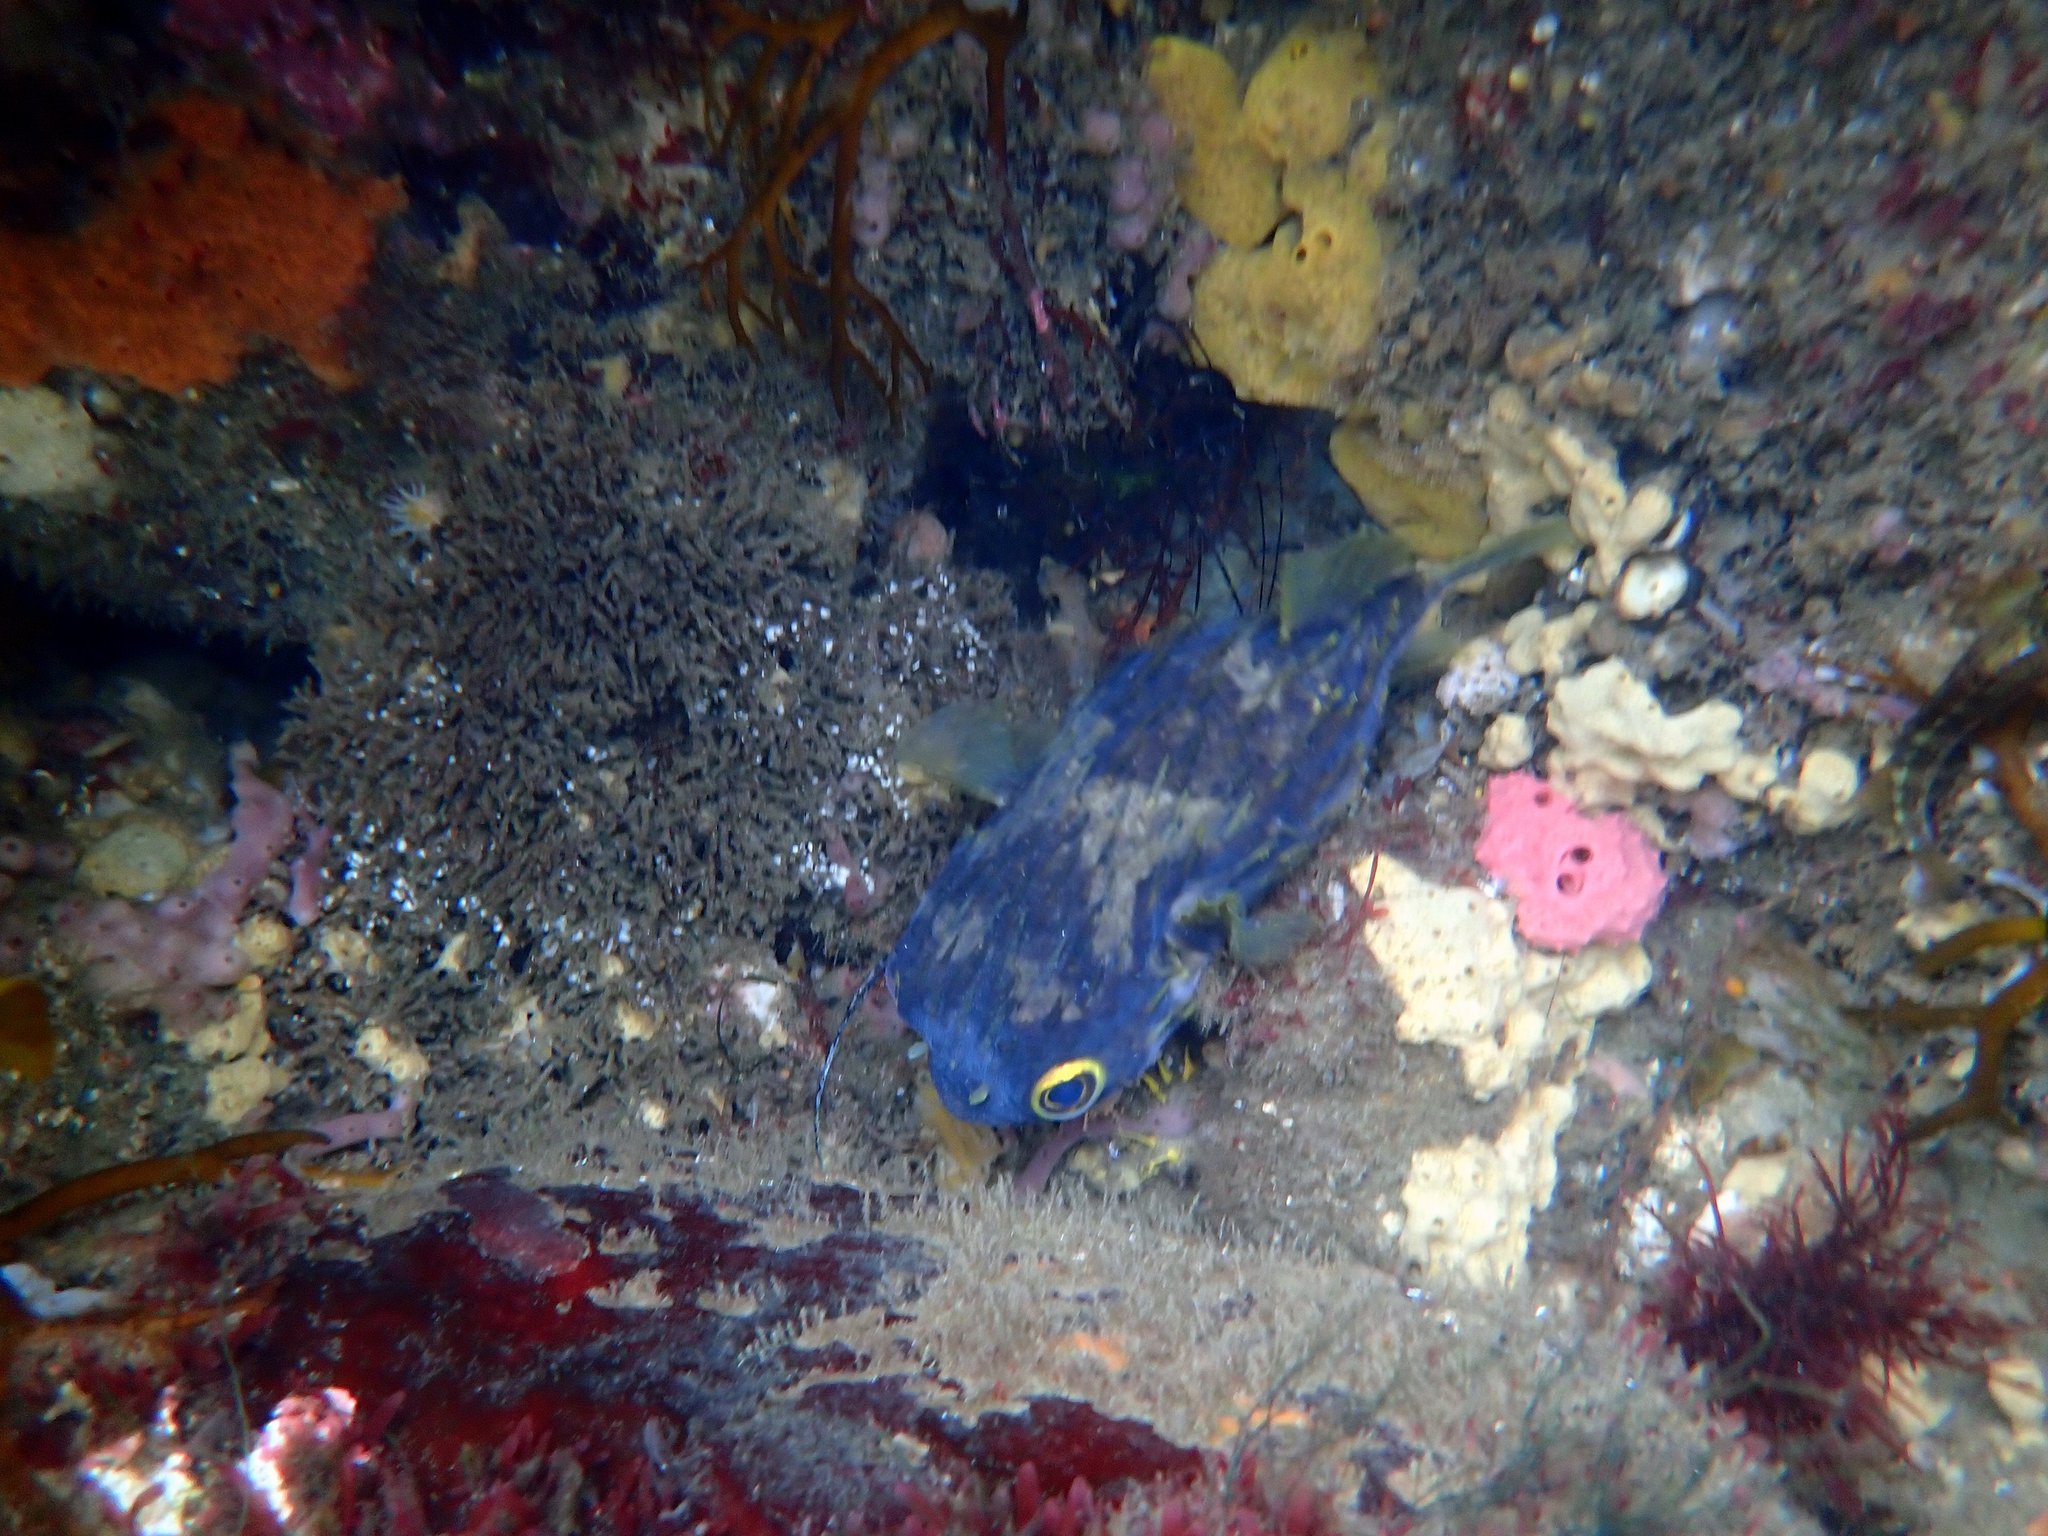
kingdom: Animalia
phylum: Chordata
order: Tetraodontiformes
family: Diodontidae
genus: Diodon
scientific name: Diodon nicthemerus
